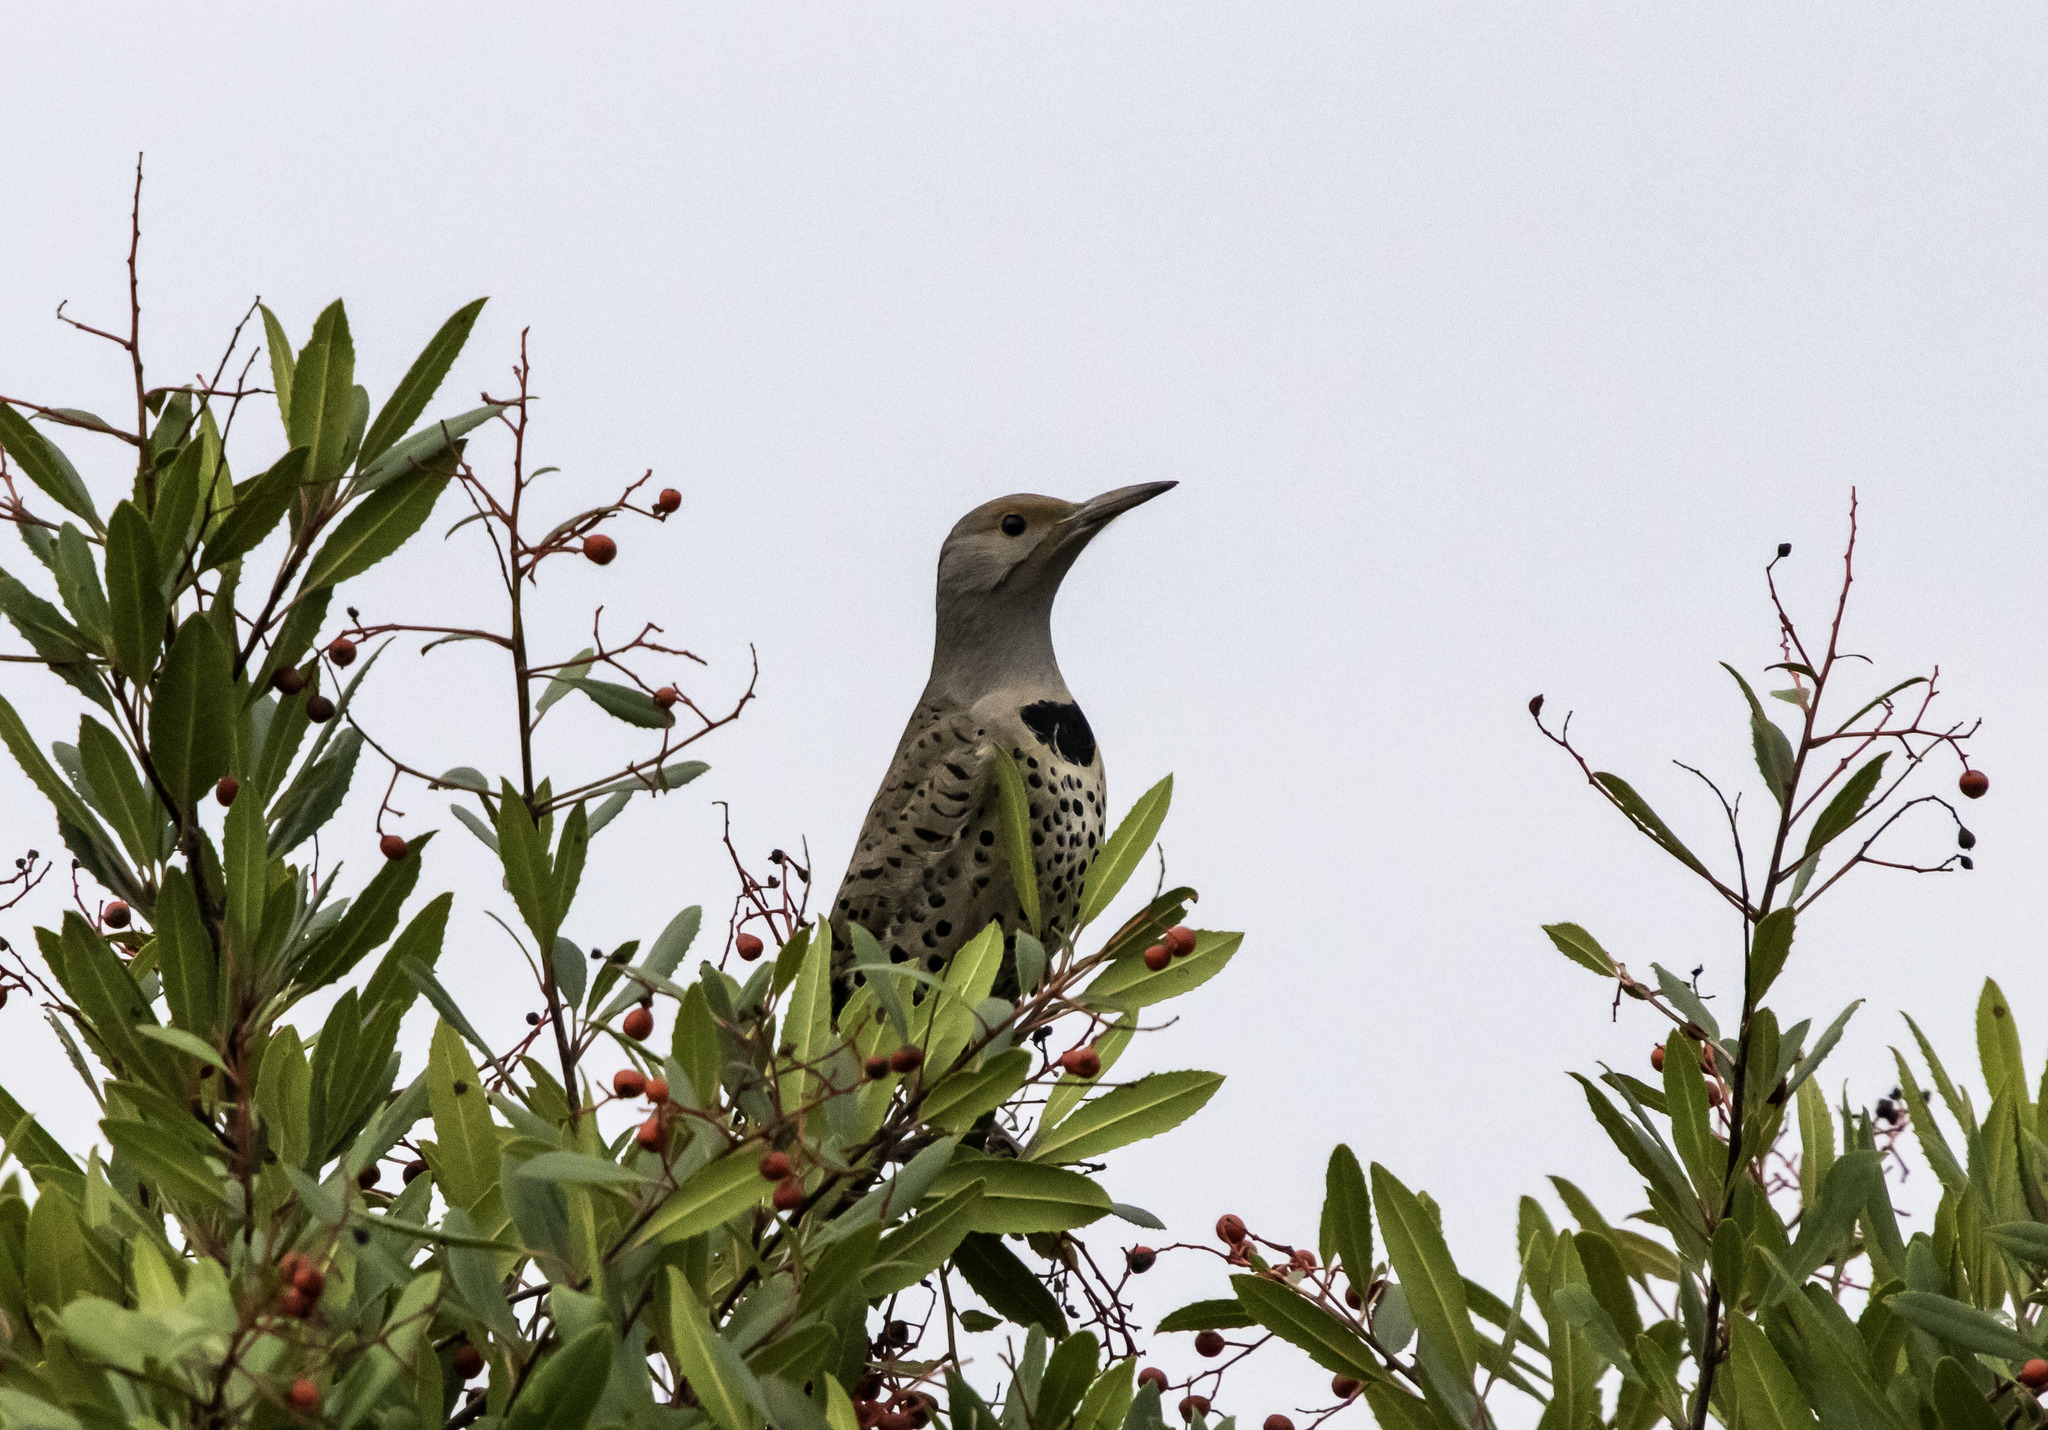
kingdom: Animalia
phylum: Chordata
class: Aves
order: Piciformes
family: Picidae
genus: Colaptes
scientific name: Colaptes auratus
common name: Northern flicker
